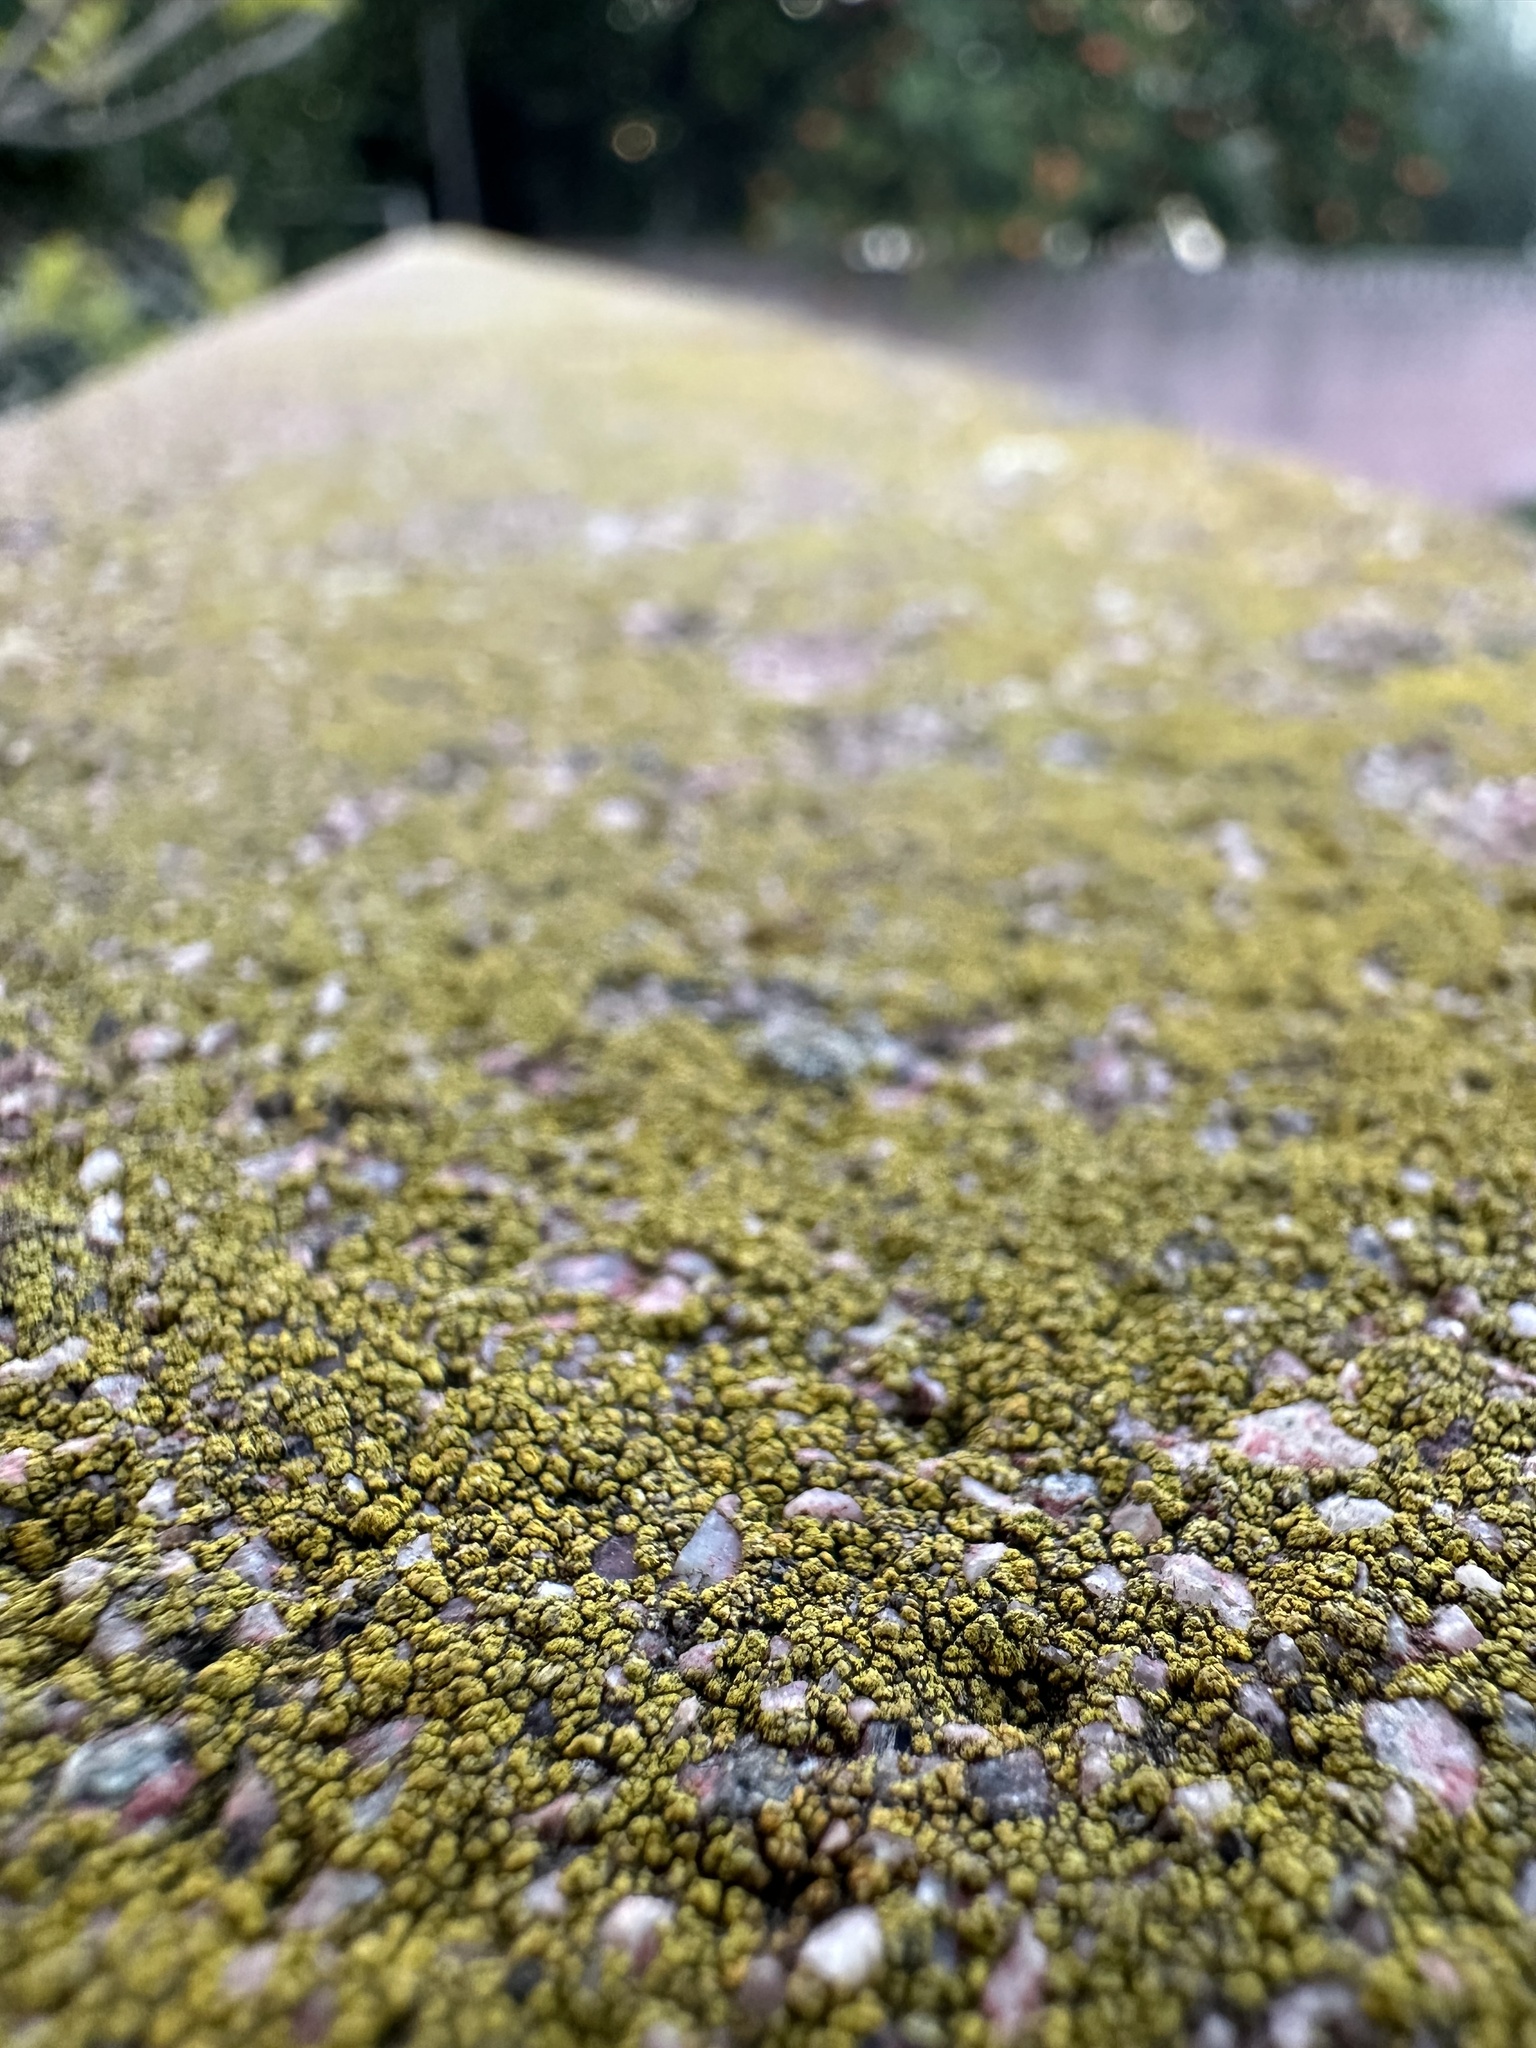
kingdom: Fungi
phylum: Ascomycota
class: Lecanoromycetes
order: Acarosporales
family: Acarosporaceae
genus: Acarospora
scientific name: Acarospora socialis
